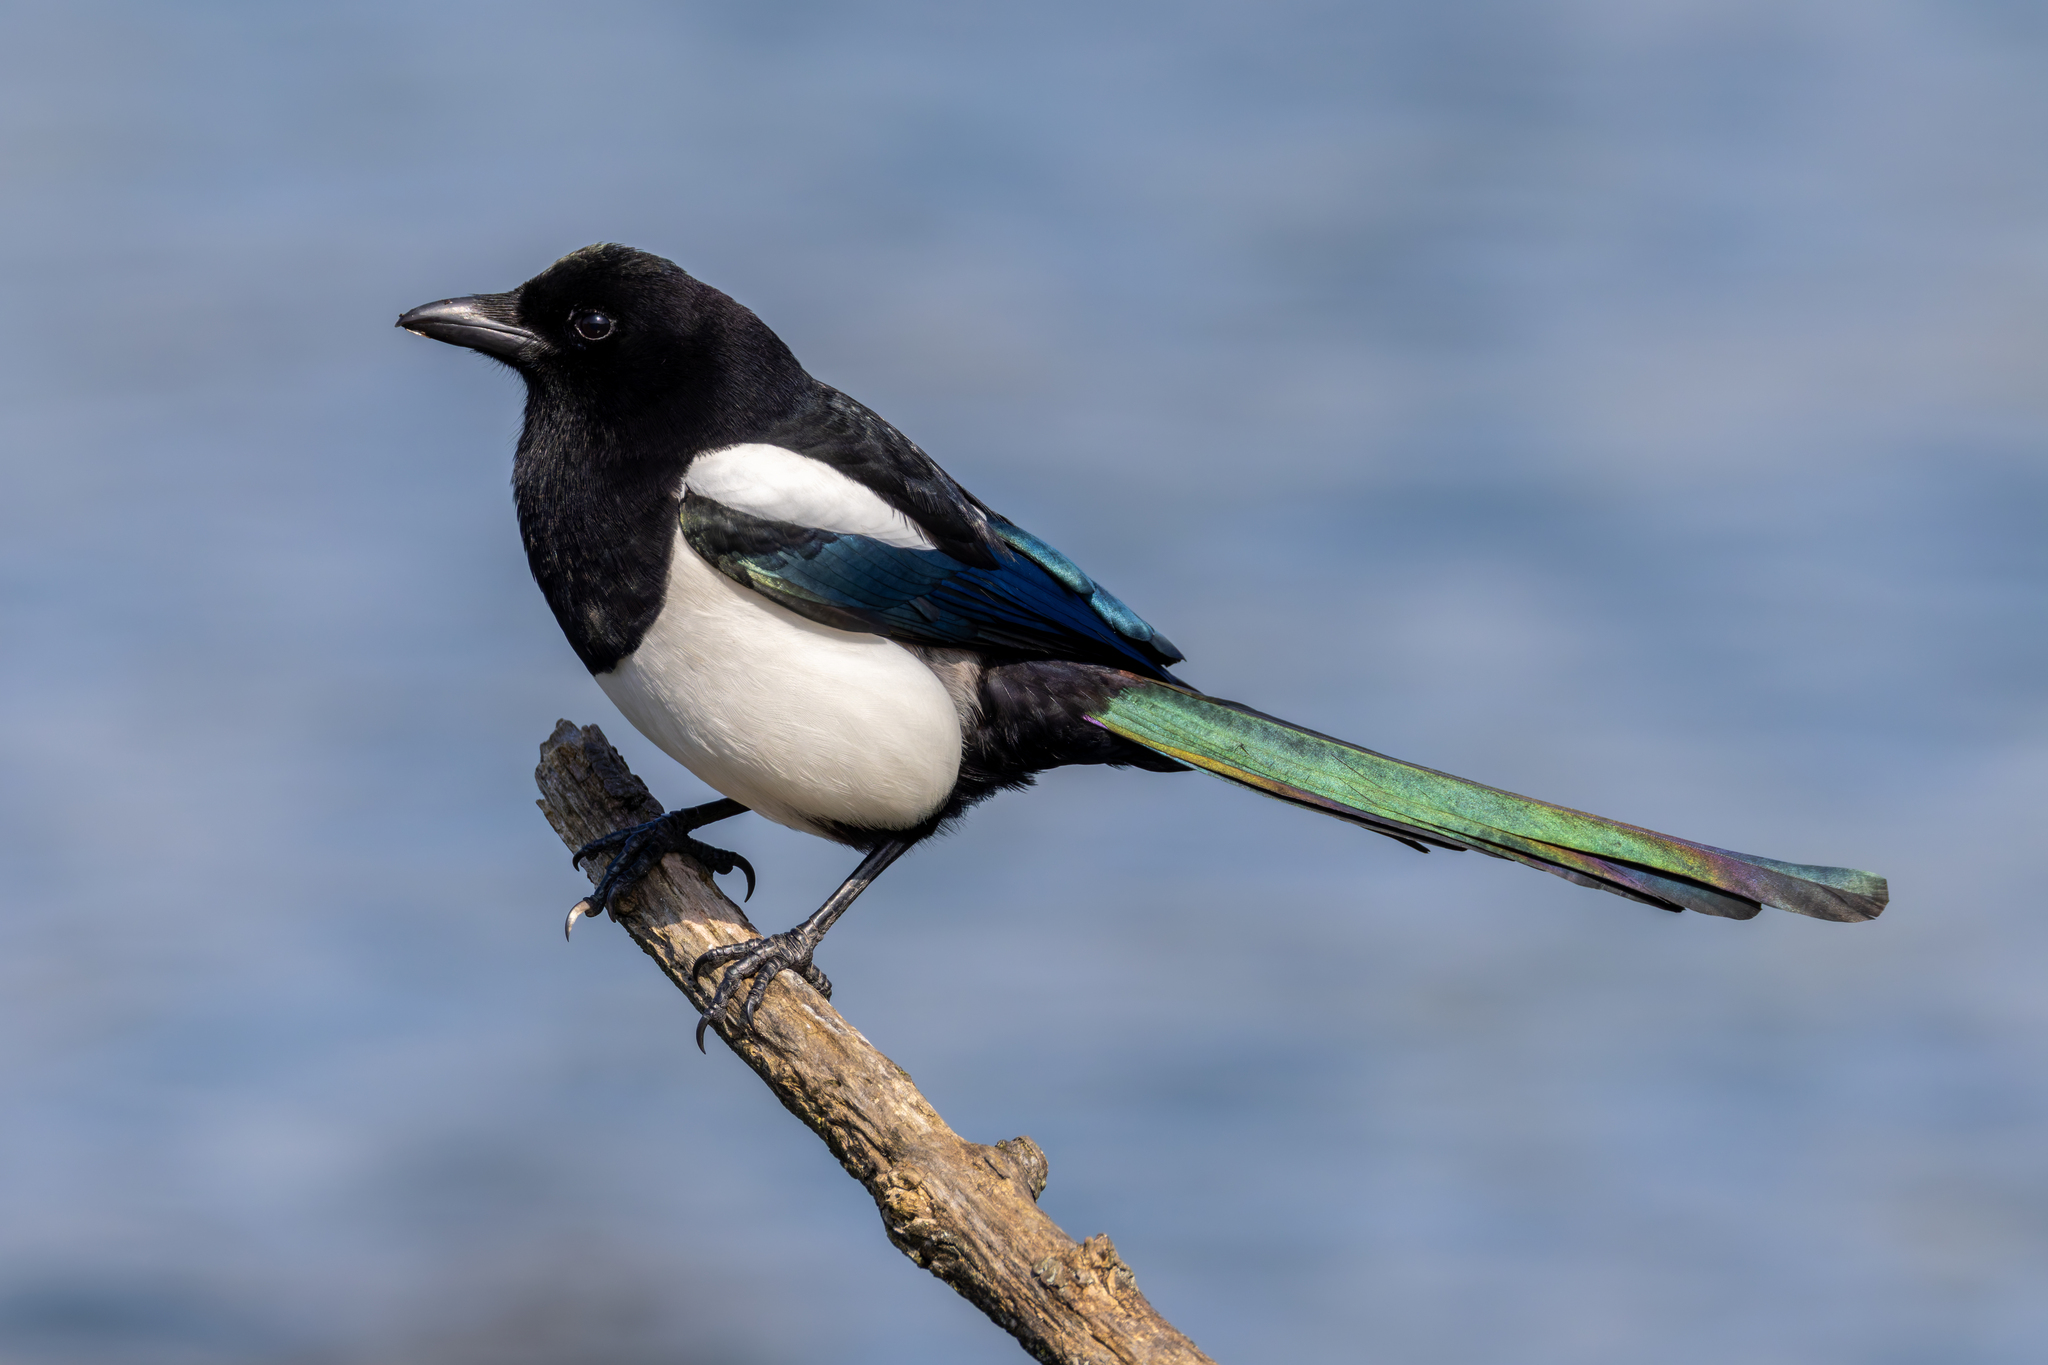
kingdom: Animalia
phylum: Chordata
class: Aves
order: Passeriformes
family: Corvidae
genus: Pica
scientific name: Pica pica
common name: Eurasian magpie
